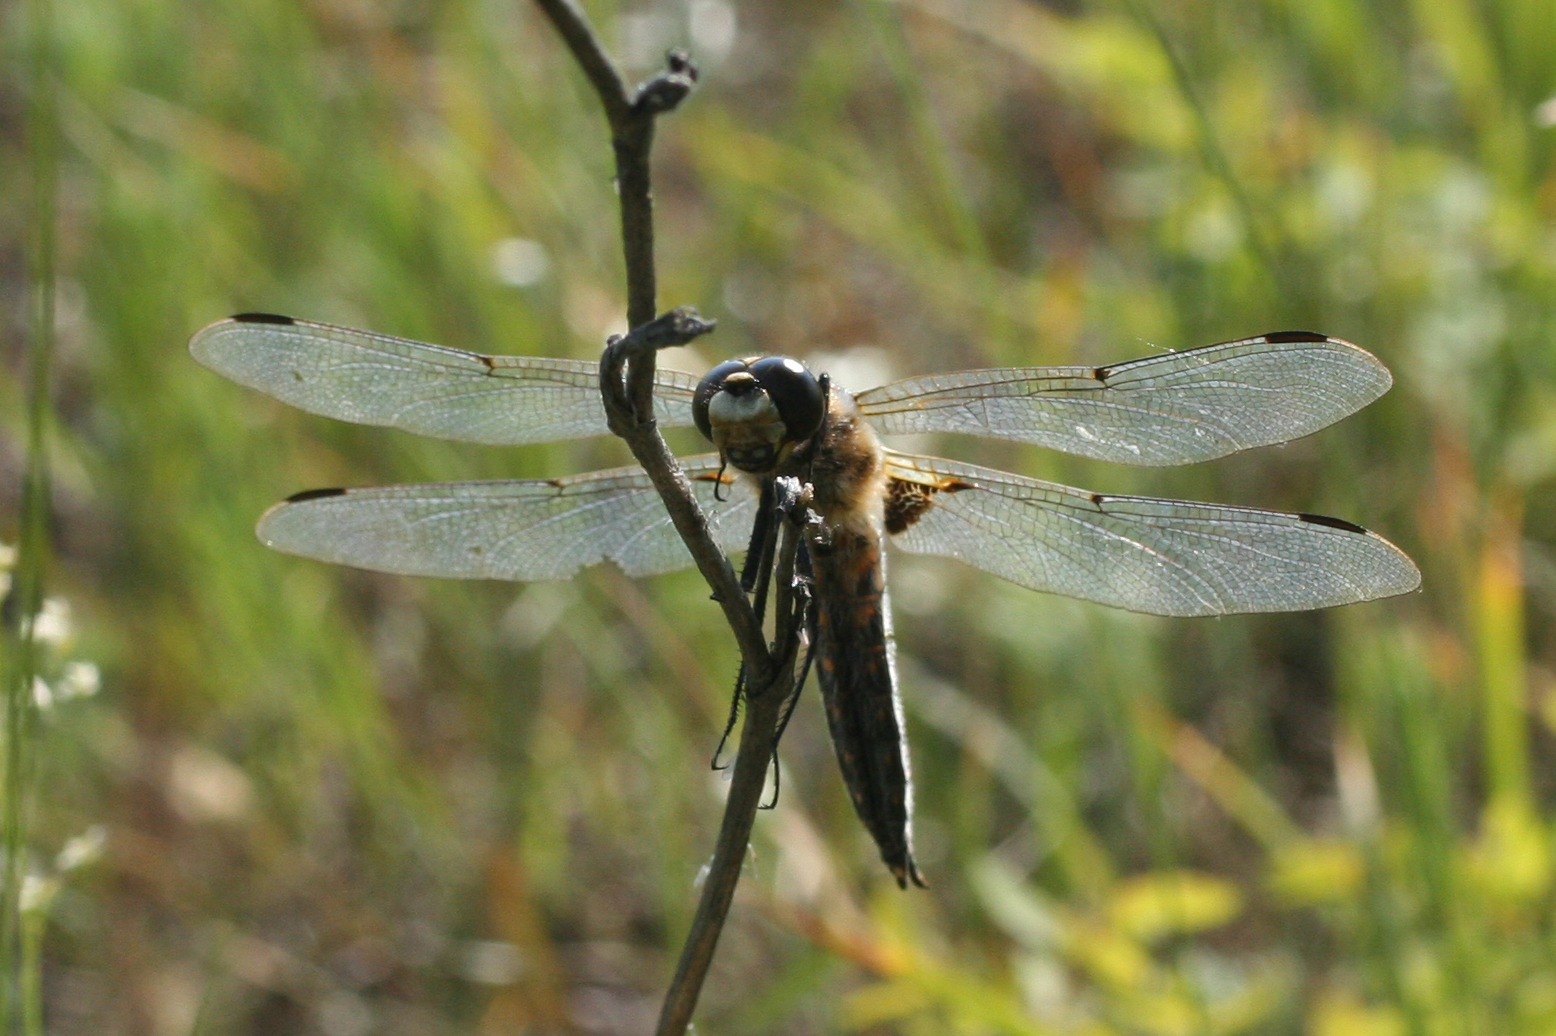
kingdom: Animalia
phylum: Arthropoda
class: Insecta
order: Odonata
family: Libellulidae
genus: Libellula
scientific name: Libellula quadrimaculata
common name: Four-spotted chaser
